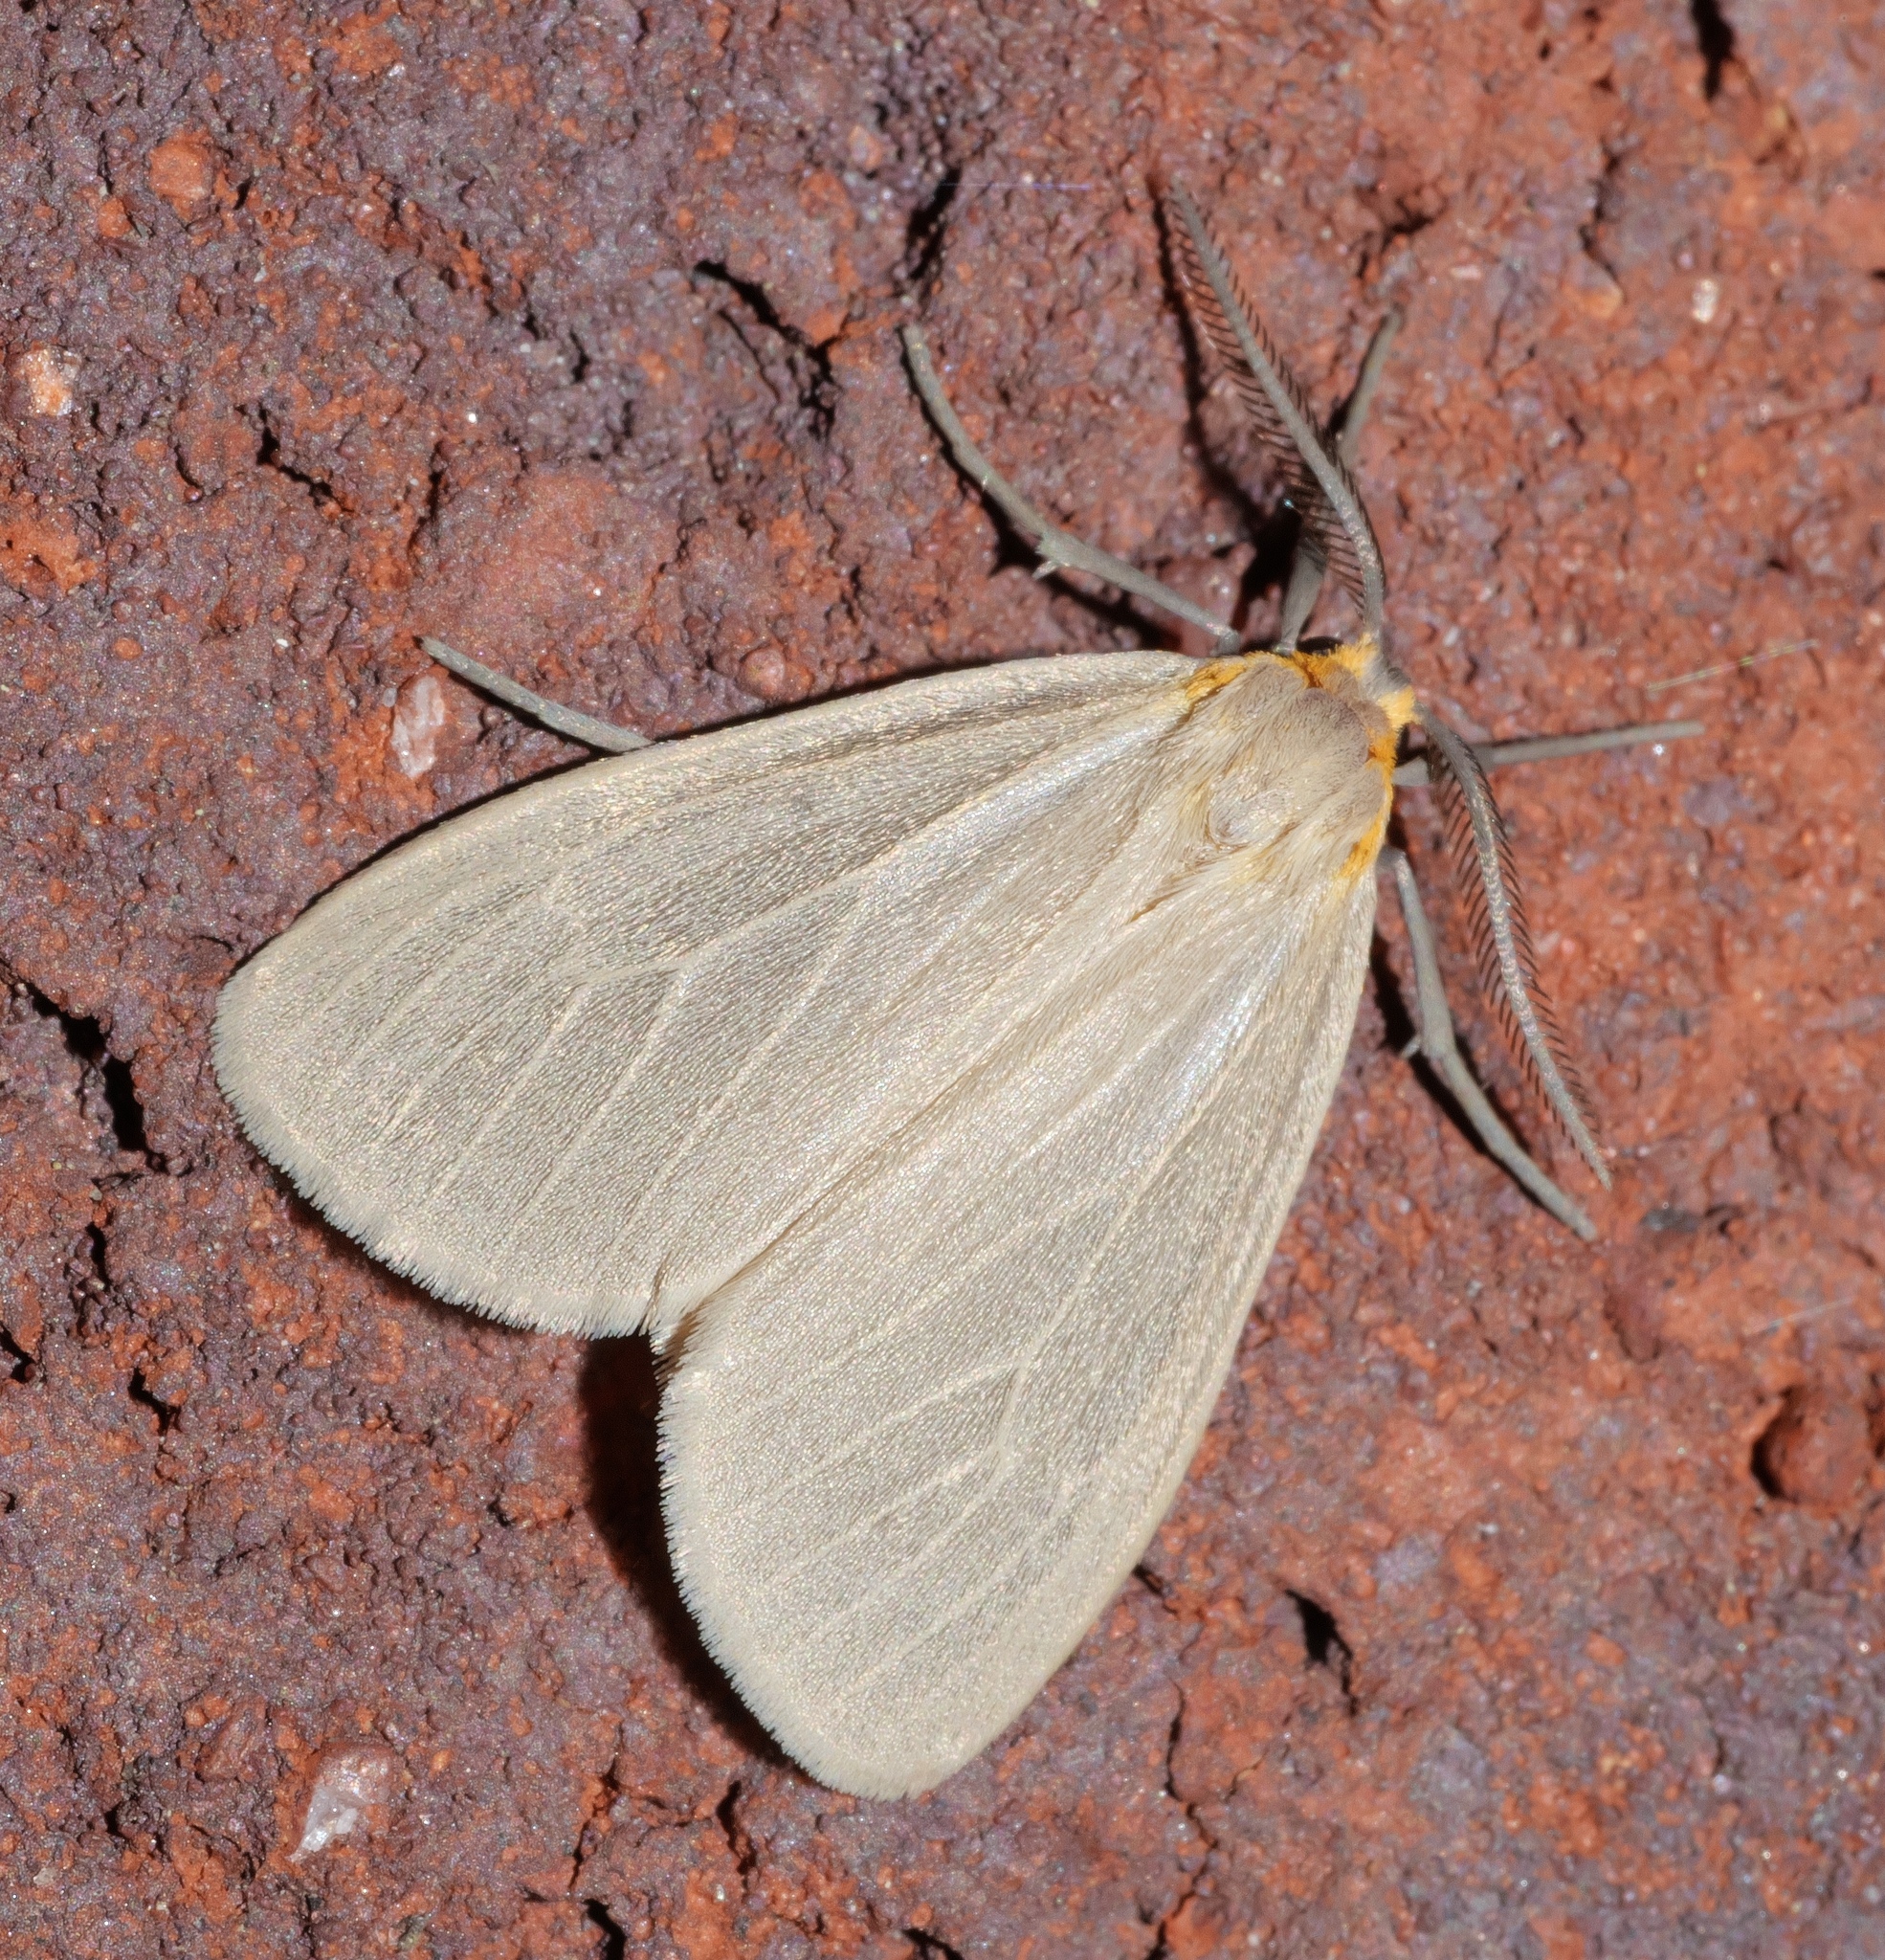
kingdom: Animalia
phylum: Arthropoda
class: Insecta
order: Lepidoptera
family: Erebidae
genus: Pagara
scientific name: Pagara simplex
